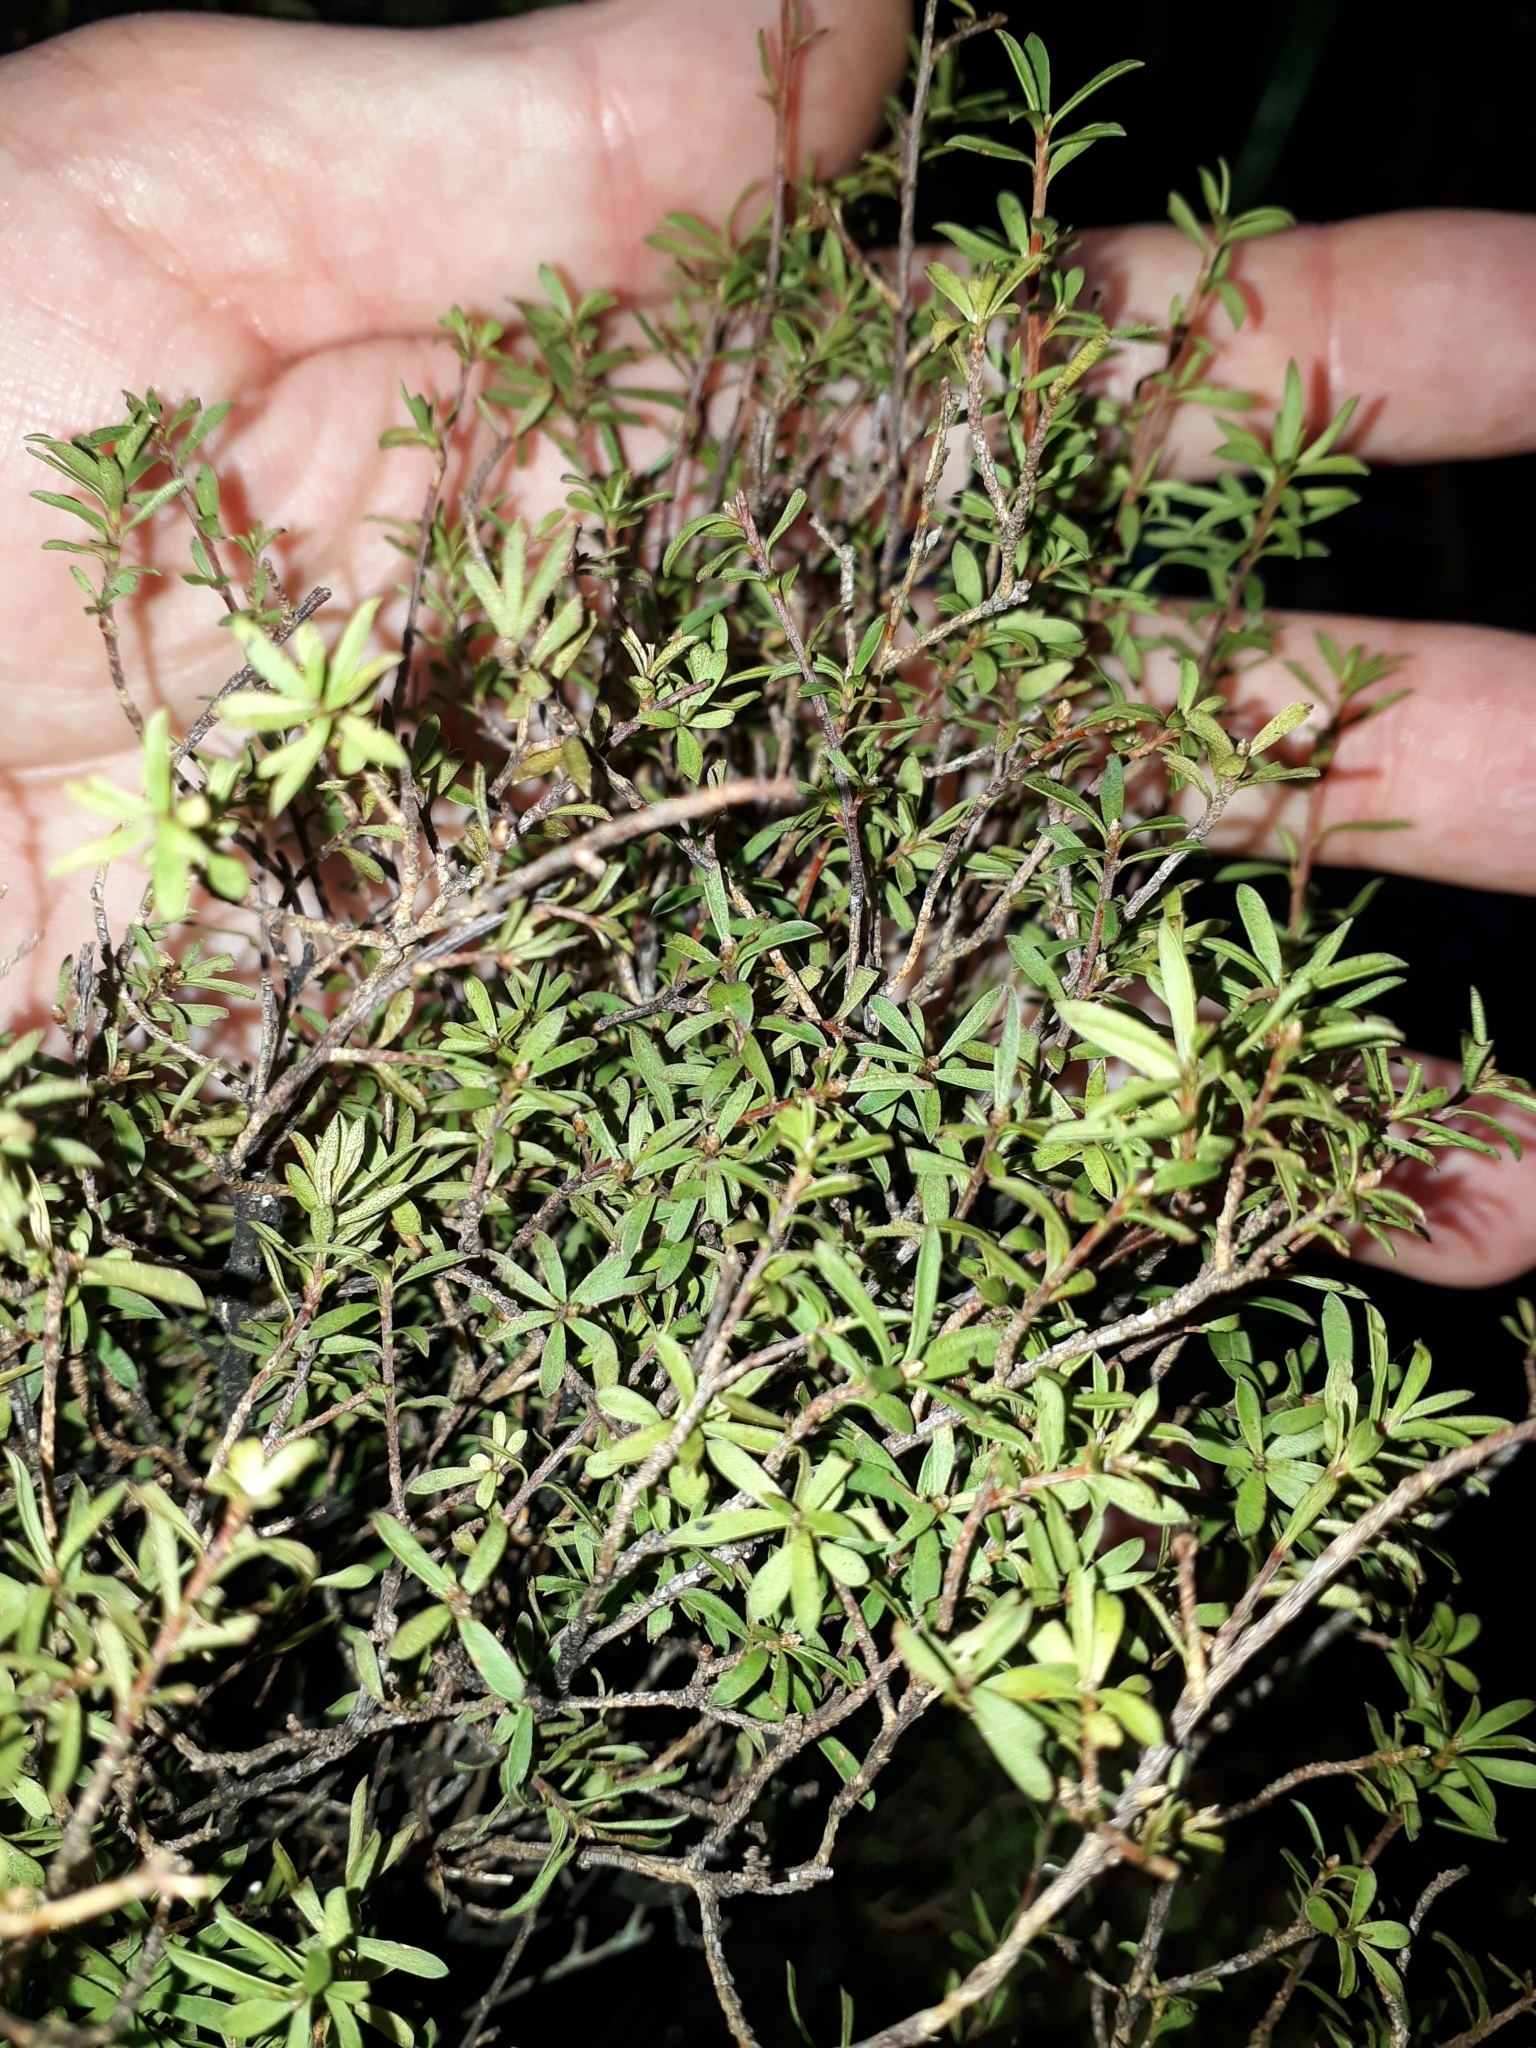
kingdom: Plantae
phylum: Tracheophyta
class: Magnoliopsida
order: Myrtales
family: Myrtaceae
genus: Kunzea
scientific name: Kunzea robusta
